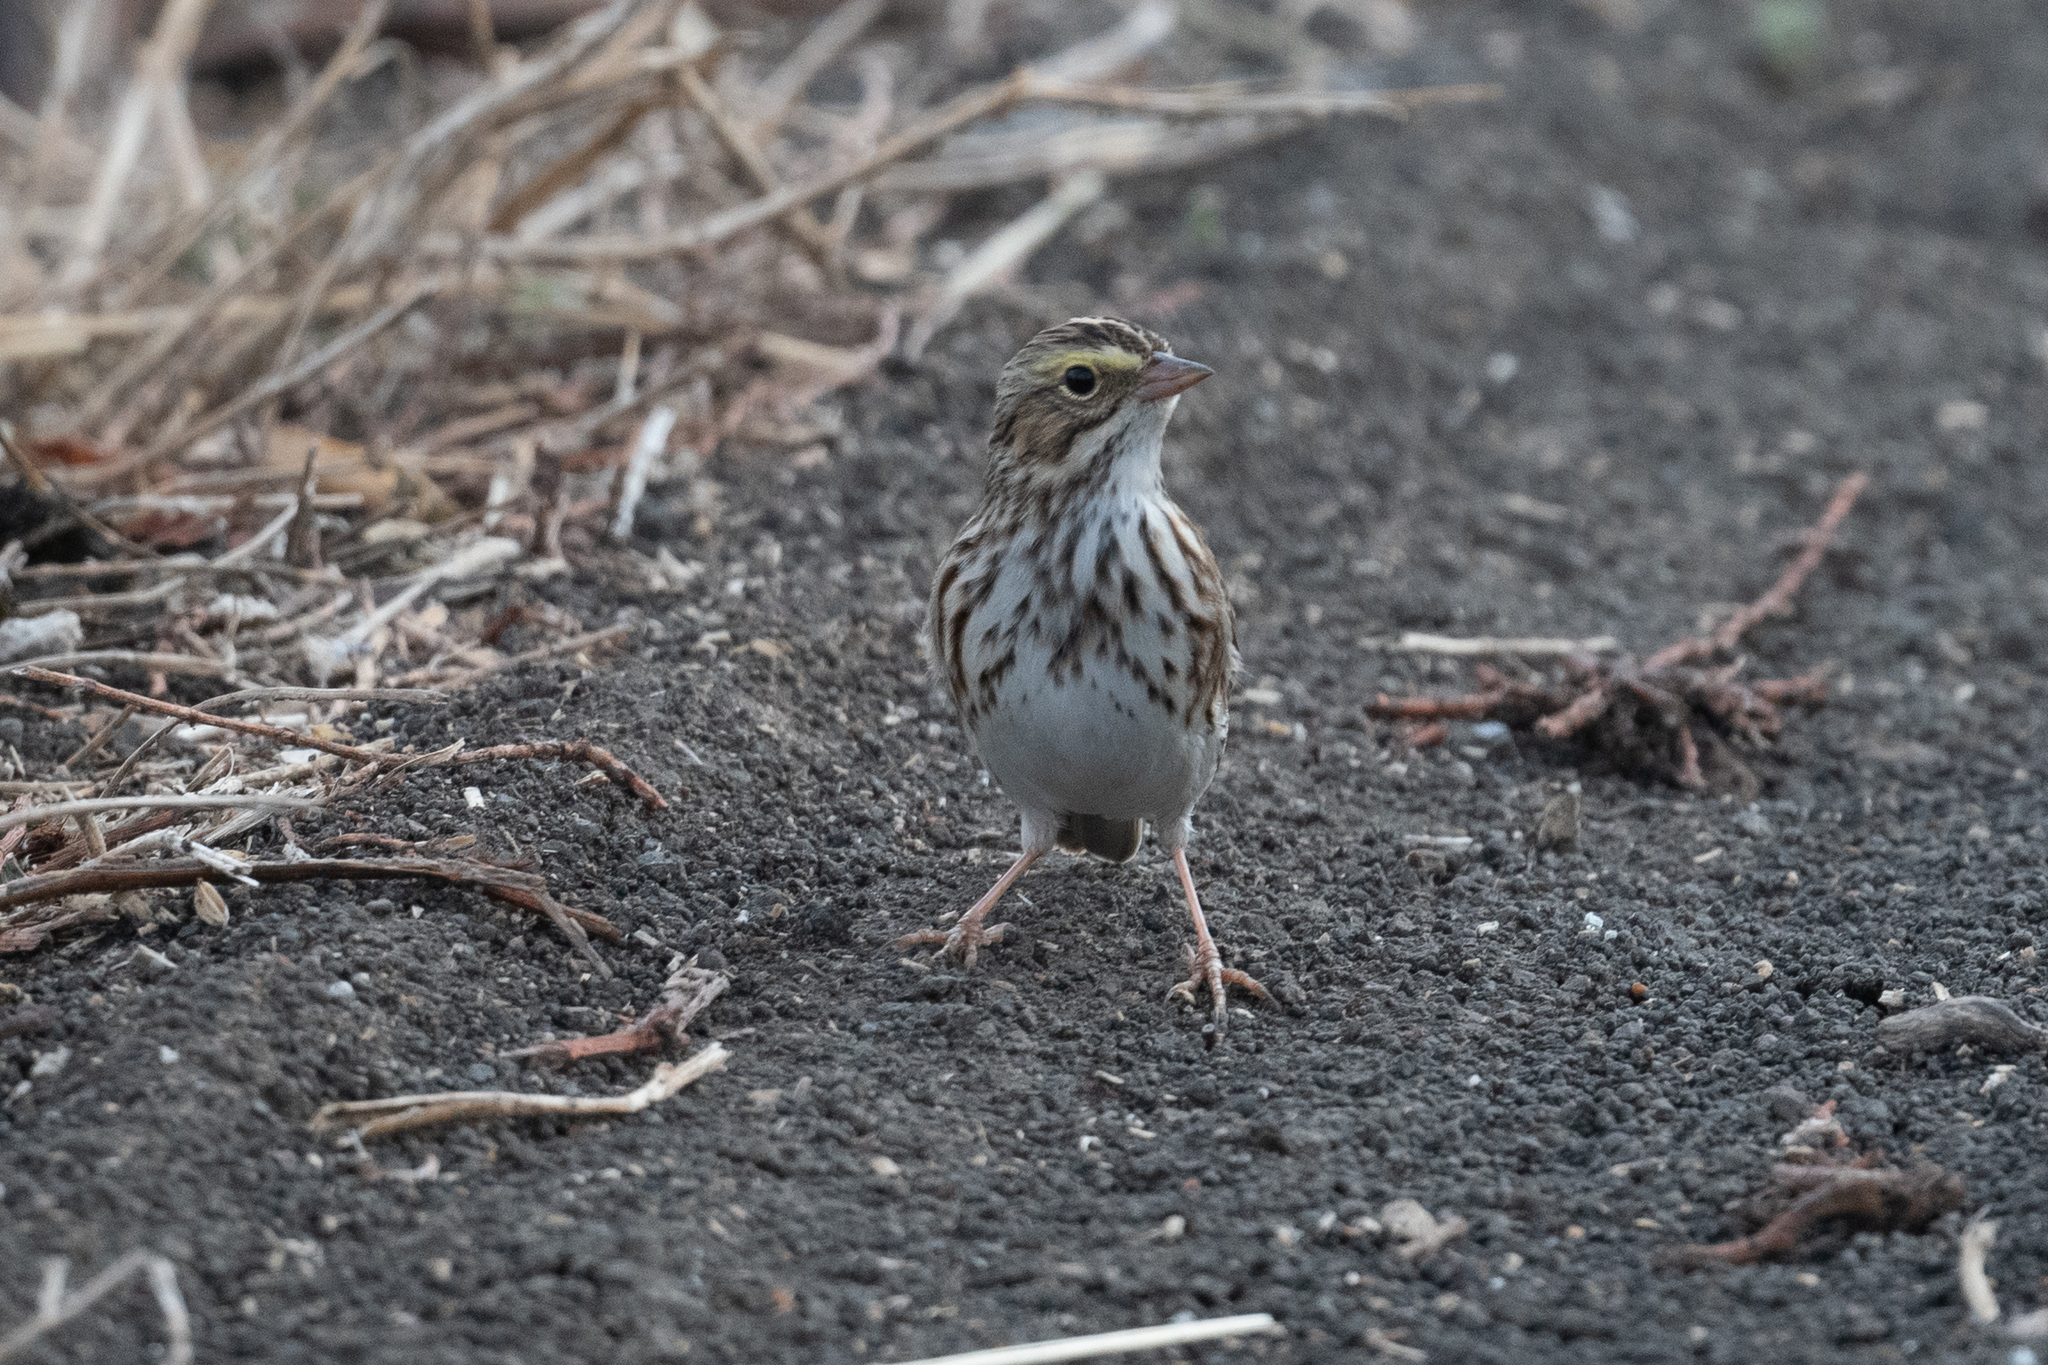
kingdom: Animalia
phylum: Chordata
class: Aves
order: Passeriformes
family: Passerellidae
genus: Passerculus
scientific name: Passerculus sandwichensis
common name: Savannah sparrow
